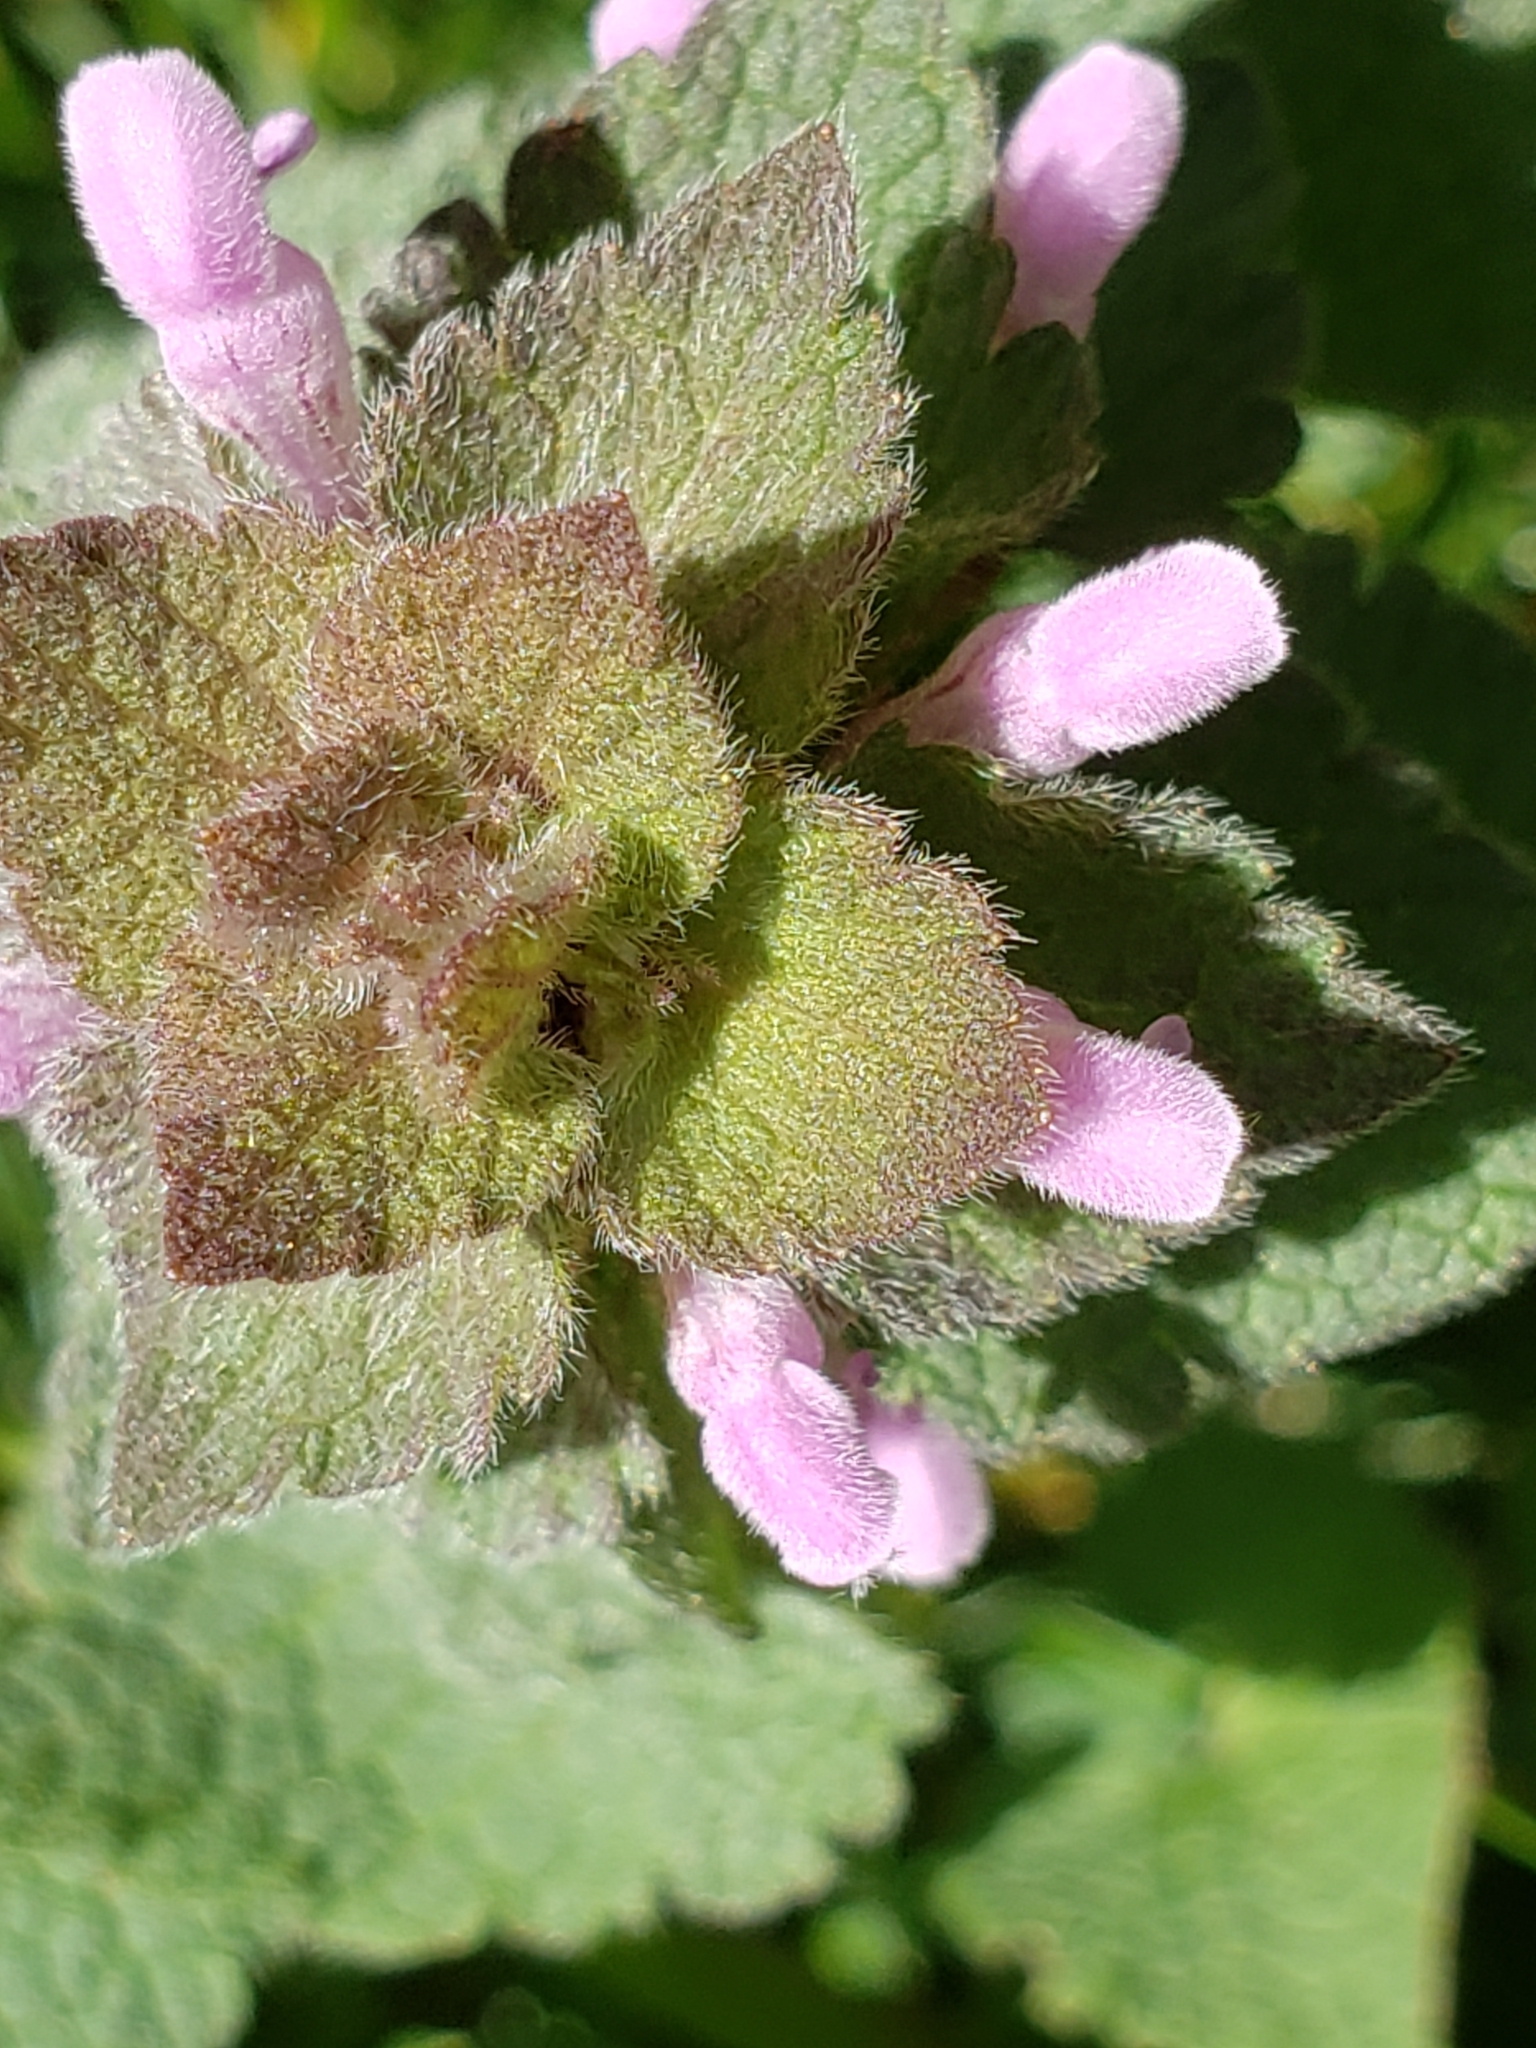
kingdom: Plantae
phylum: Tracheophyta
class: Magnoliopsida
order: Lamiales
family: Lamiaceae
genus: Lamium
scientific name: Lamium purpureum
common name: Red dead-nettle
